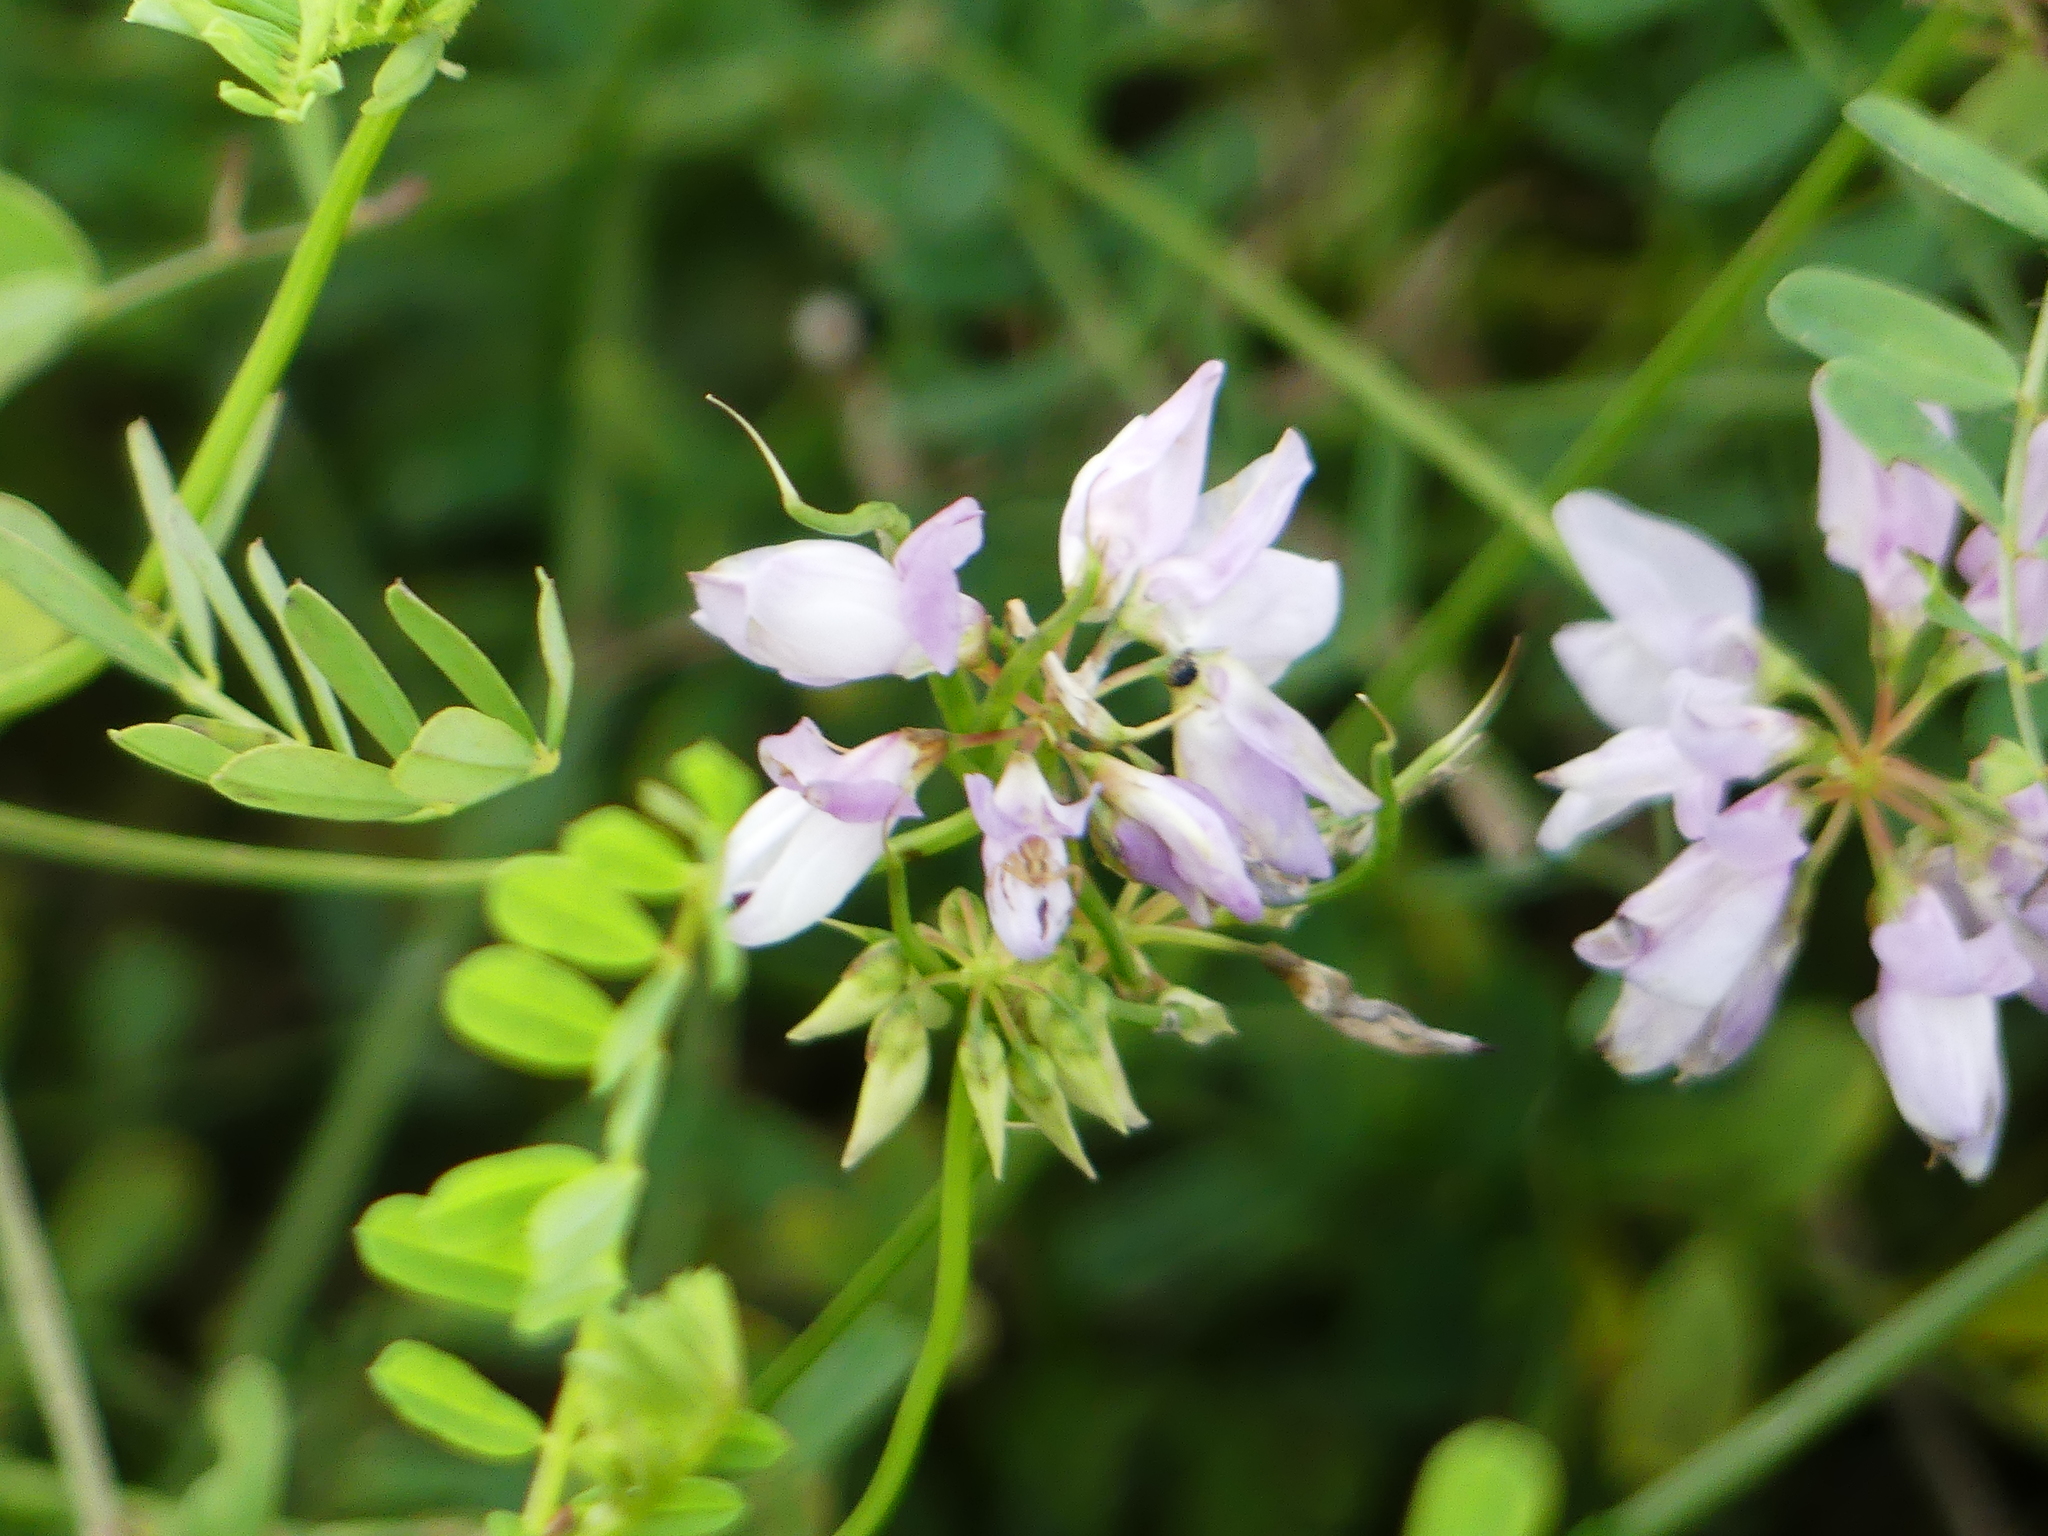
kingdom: Plantae
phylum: Tracheophyta
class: Magnoliopsida
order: Fabales
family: Fabaceae
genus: Coronilla
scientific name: Coronilla varia
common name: Crownvetch
